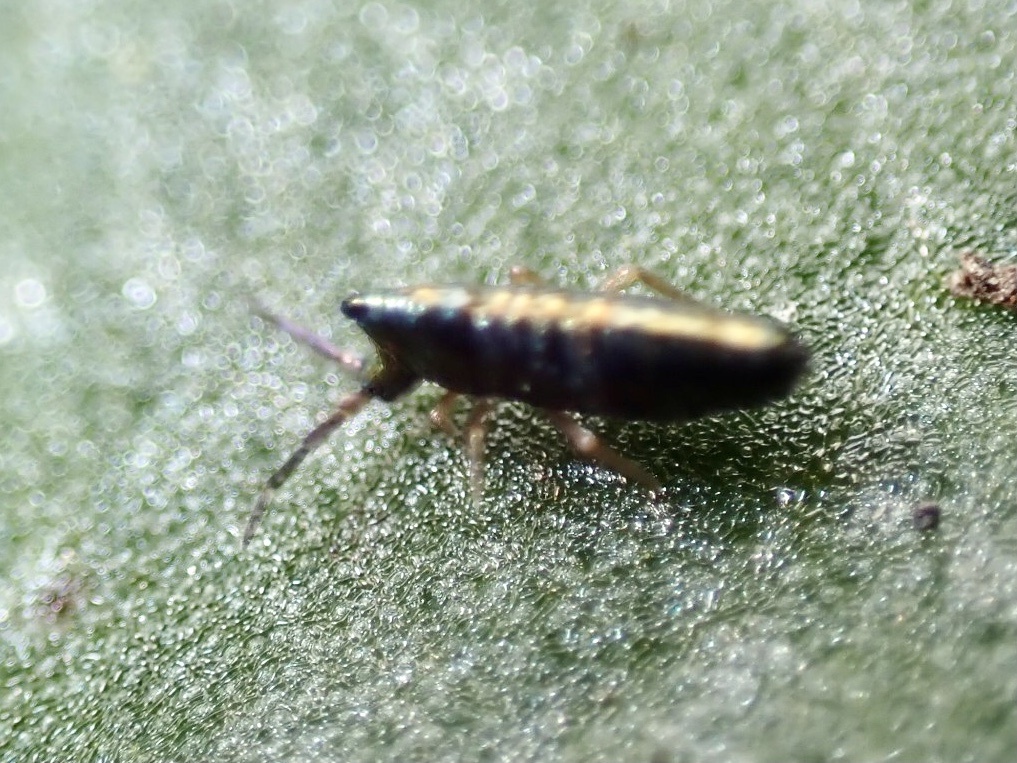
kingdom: Animalia
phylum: Arthropoda
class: Collembola
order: Entomobryomorpha
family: Entomobryidae
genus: Lepidocyrtus
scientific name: Lepidocyrtus paradoxus
